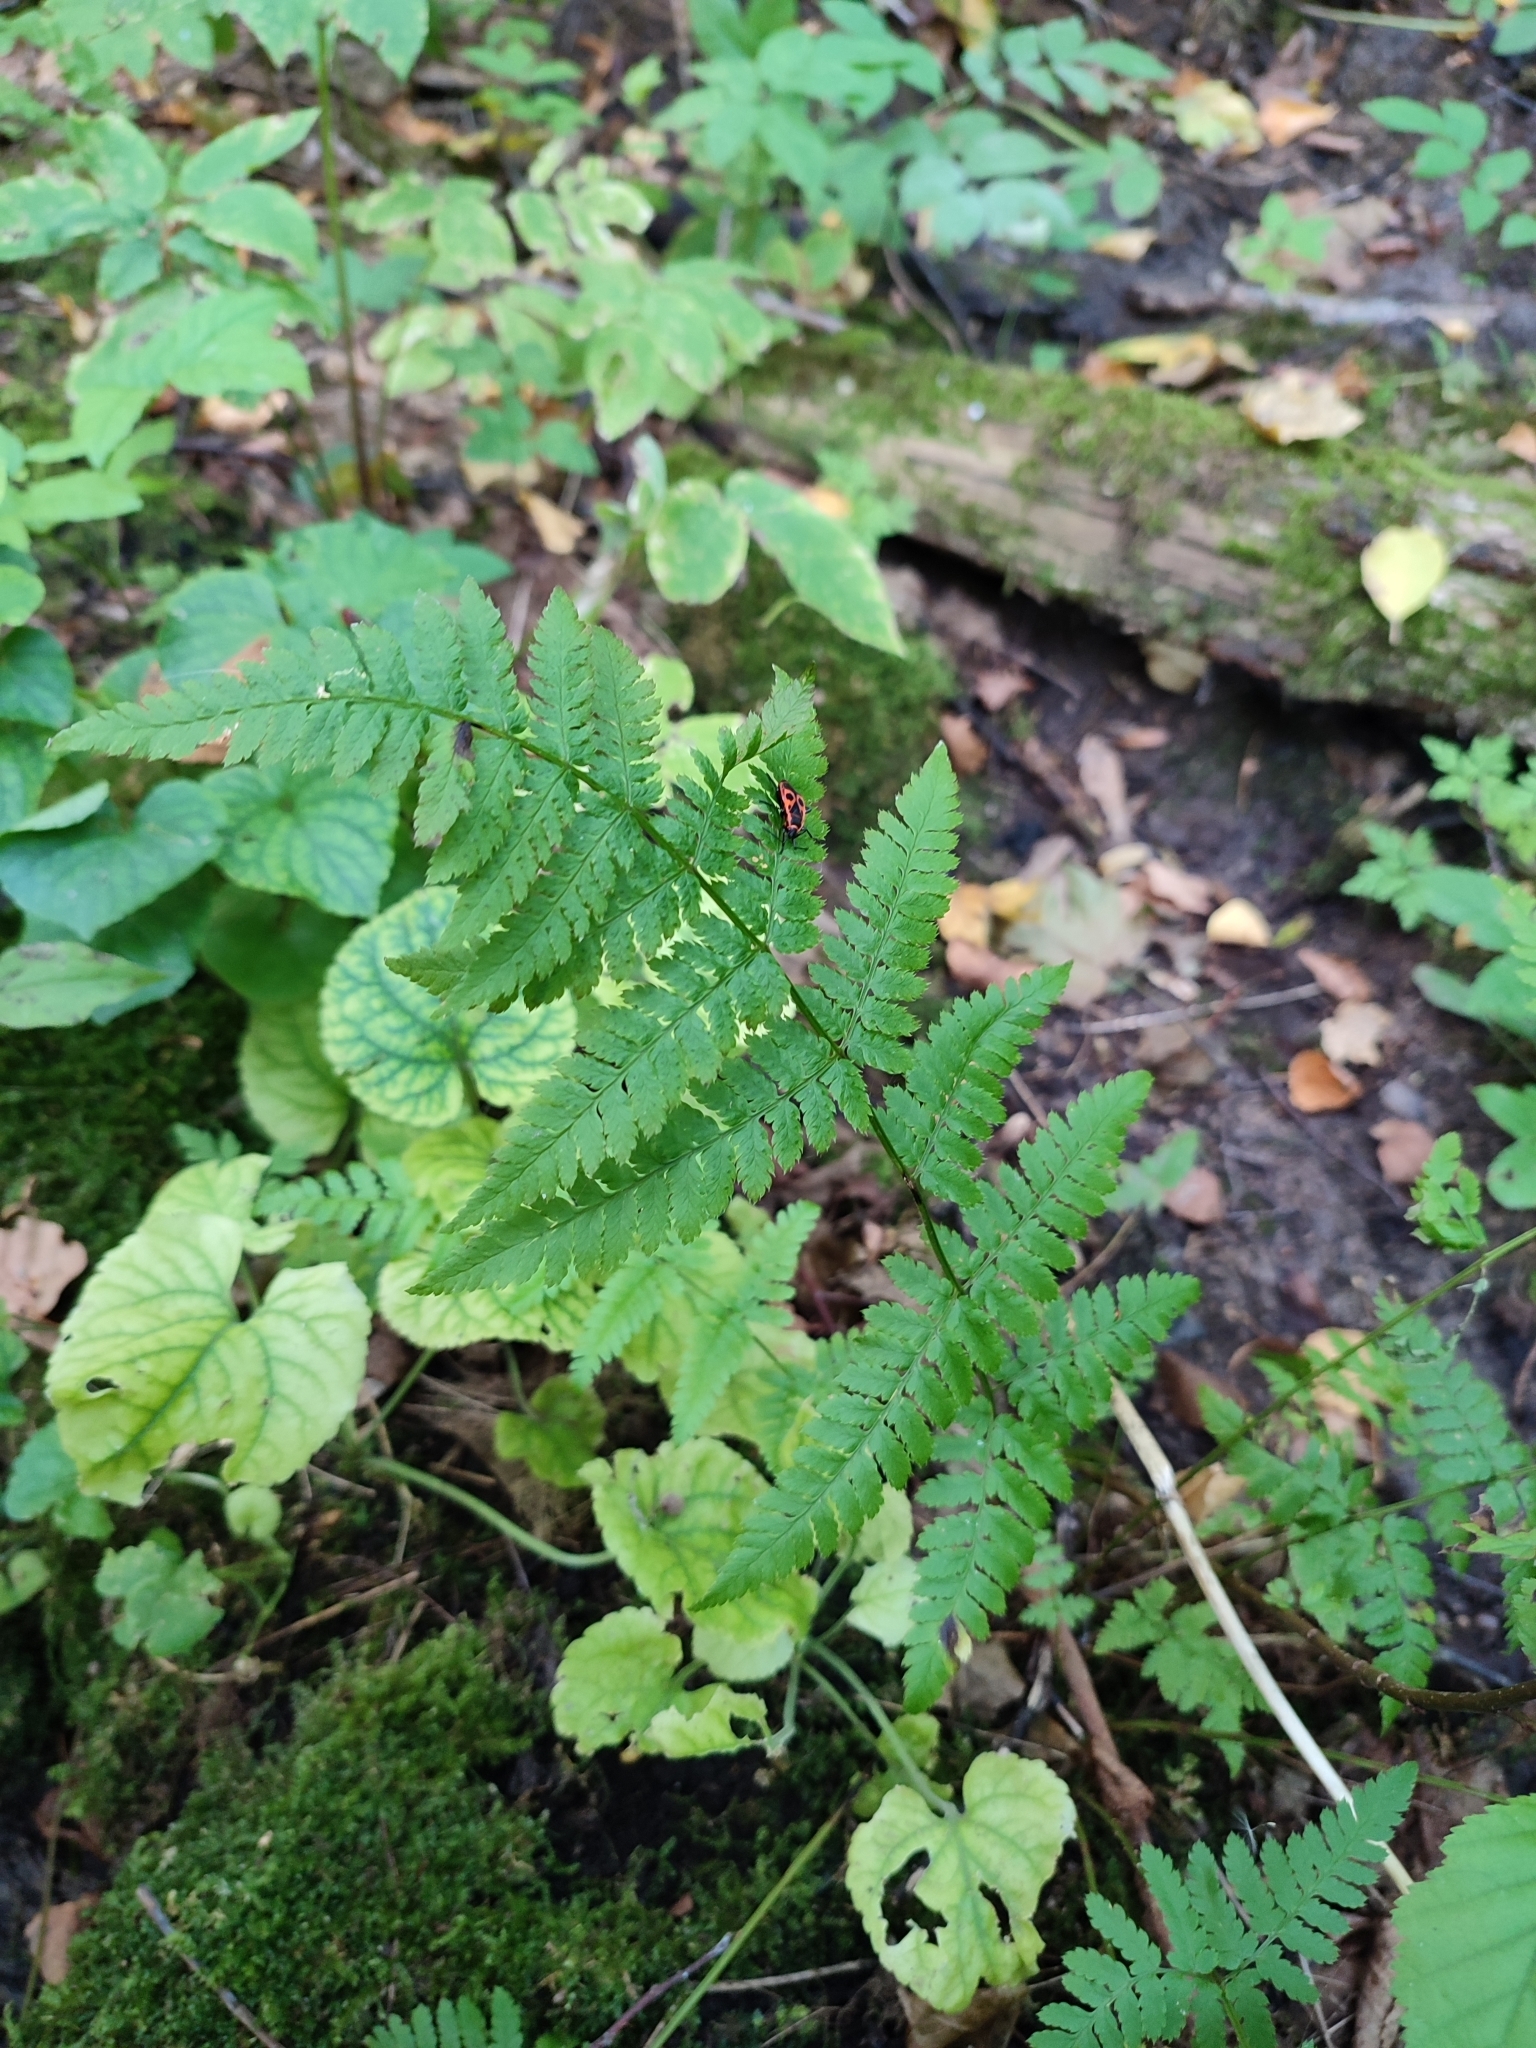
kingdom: Plantae
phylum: Tracheophyta
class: Polypodiopsida
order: Polypodiales
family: Dryopteridaceae
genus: Dryopteris
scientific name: Dryopteris carthusiana
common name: Narrow buckler-fern
